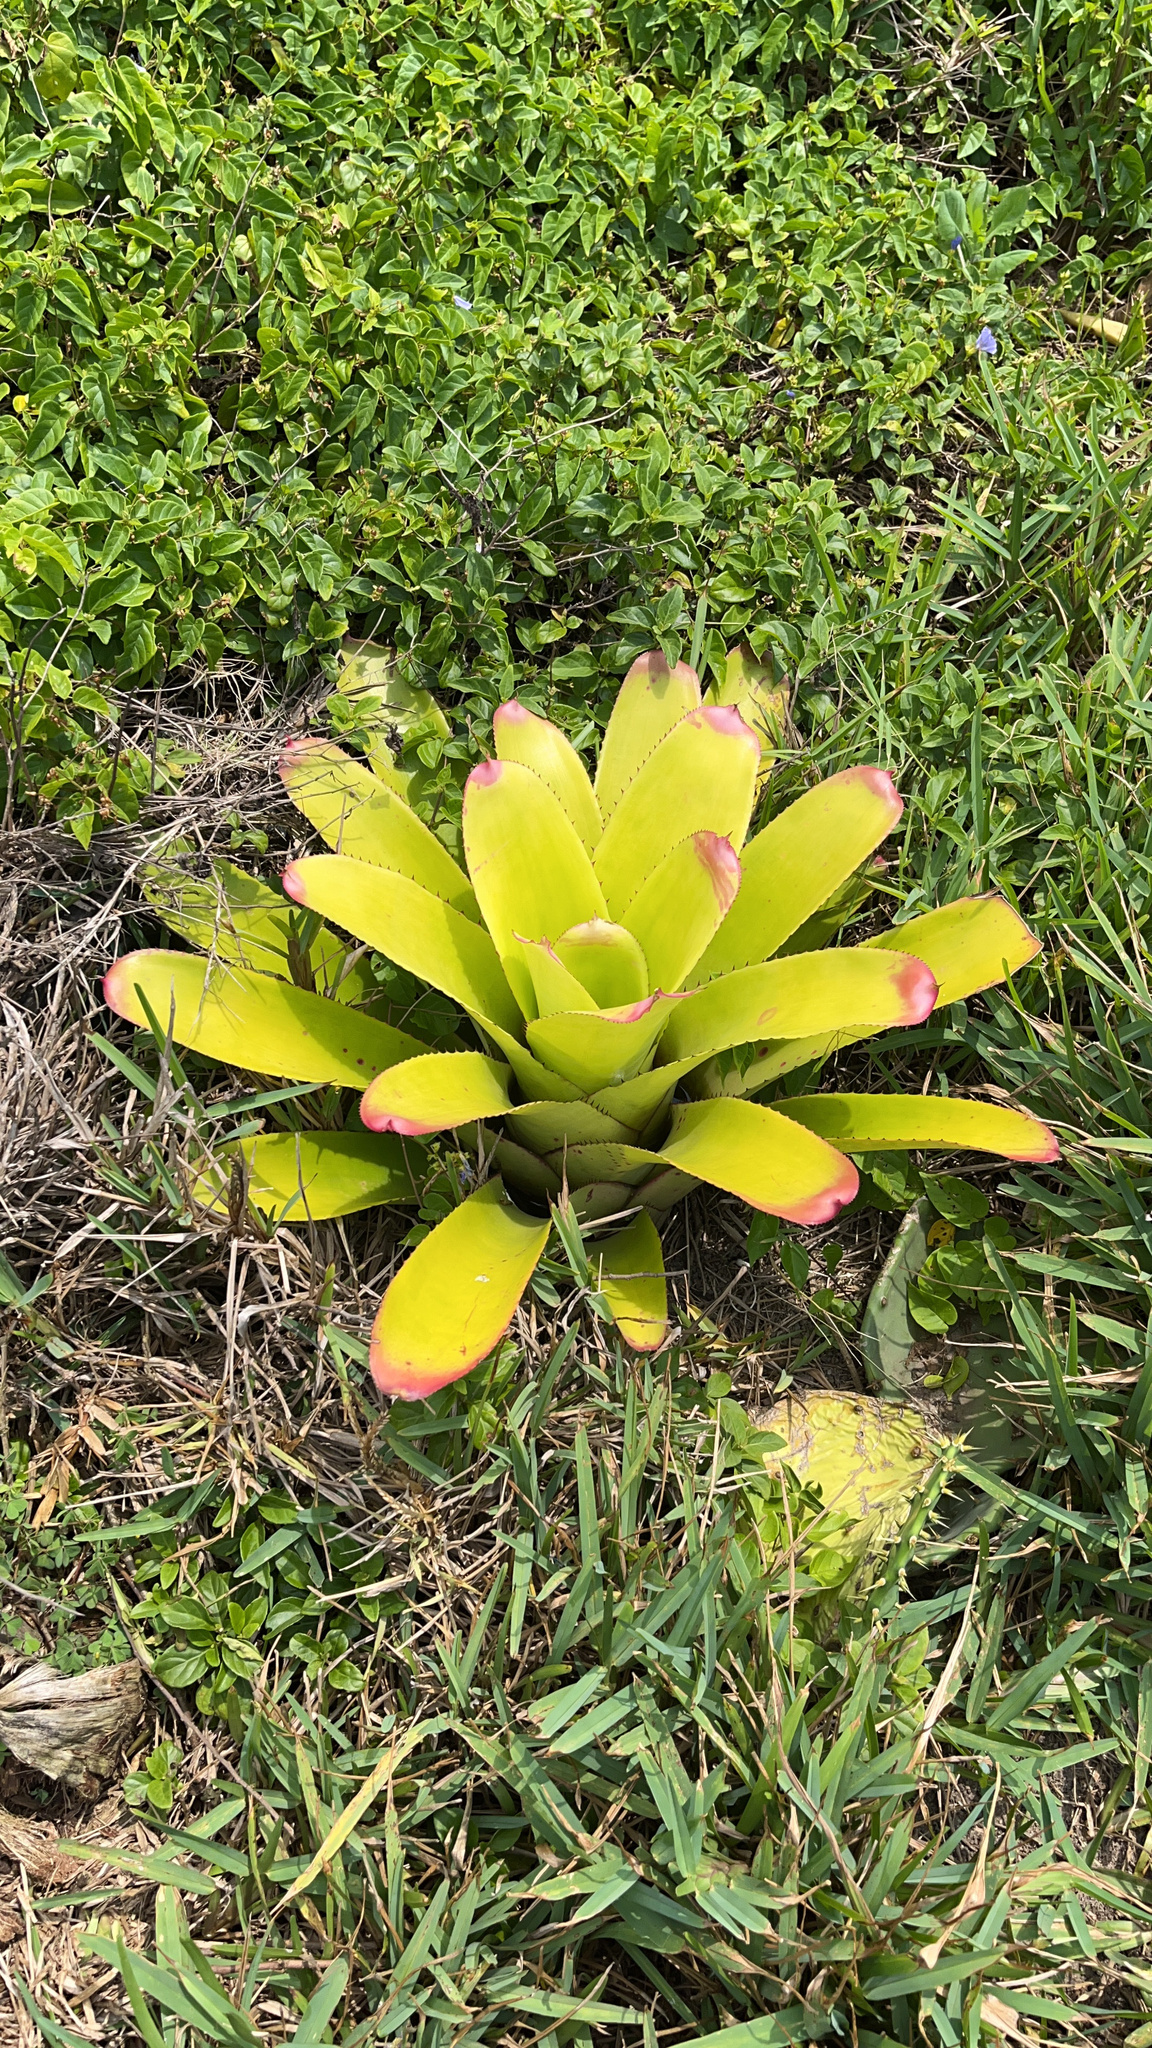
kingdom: Plantae
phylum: Tracheophyta
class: Liliopsida
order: Poales
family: Bromeliaceae
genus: Neoregelia
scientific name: Neoregelia cruenta
